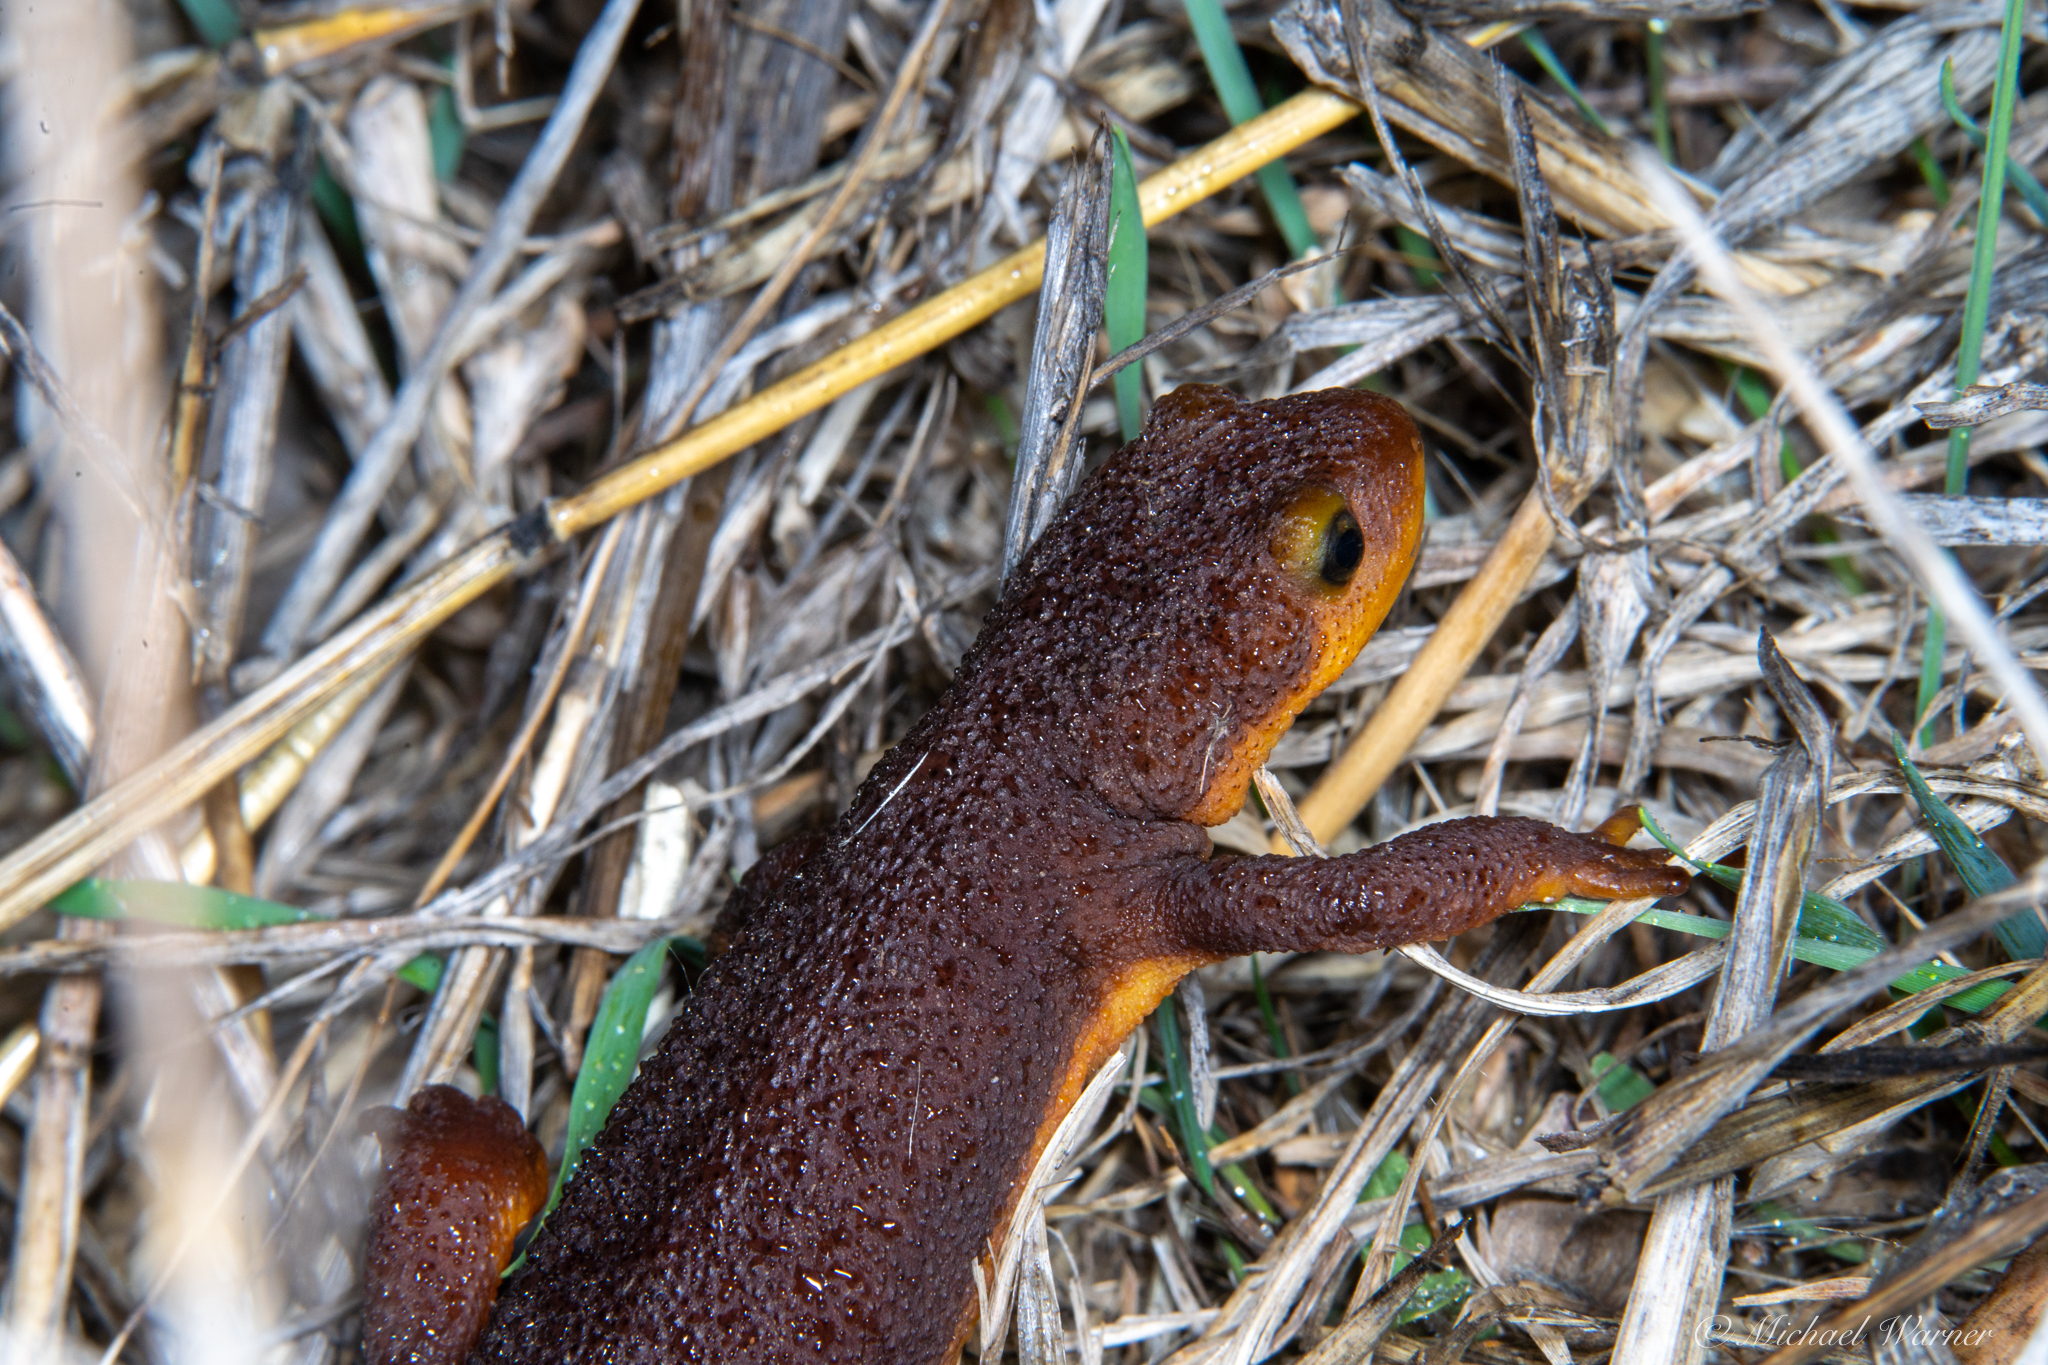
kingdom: Animalia
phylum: Chordata
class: Amphibia
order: Caudata
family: Salamandridae
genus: Taricha
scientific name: Taricha torosa
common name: California newt
